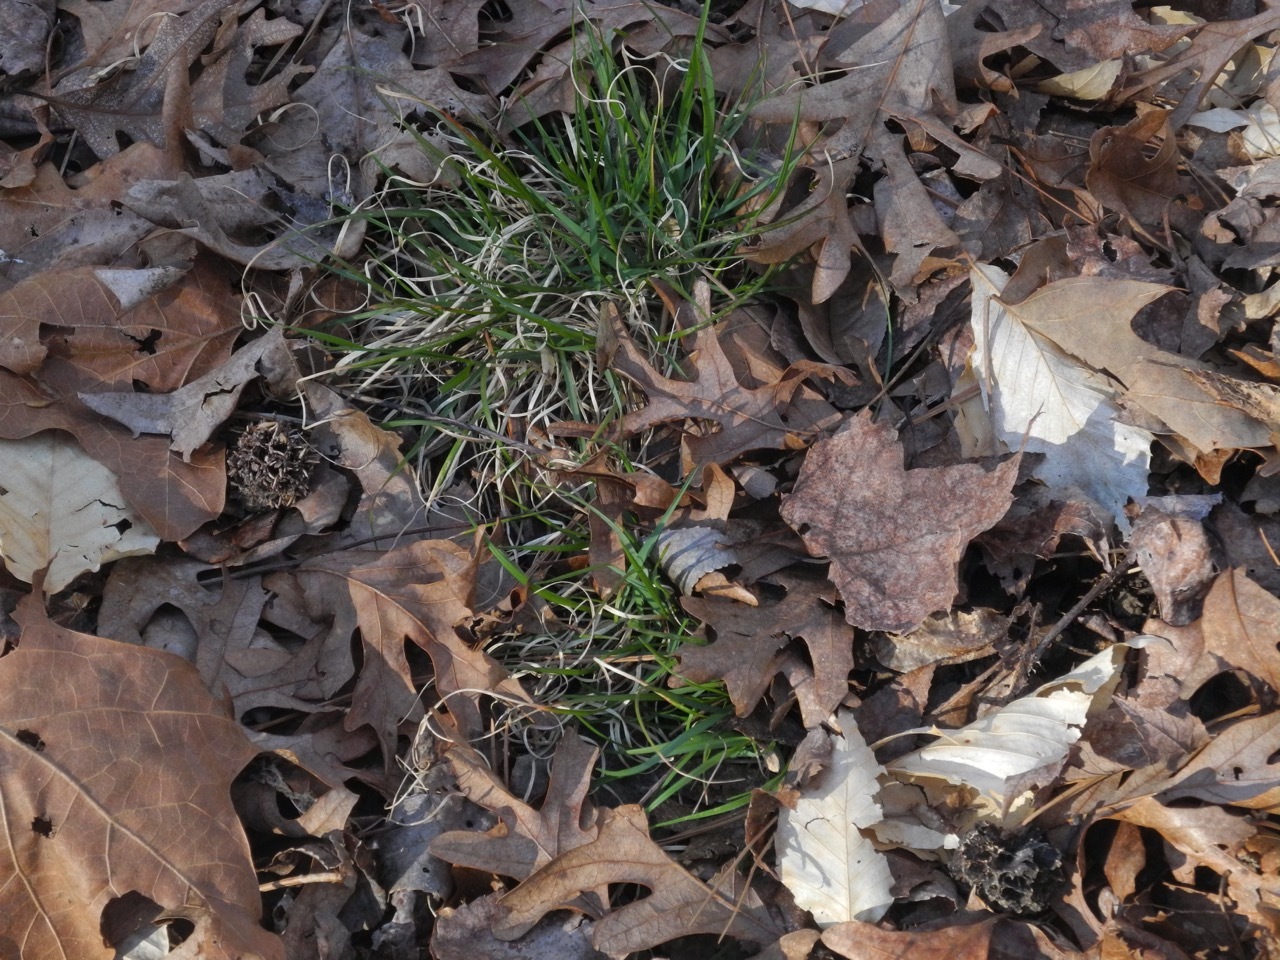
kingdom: Plantae
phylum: Tracheophyta
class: Liliopsida
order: Poales
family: Poaceae
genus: Danthonia
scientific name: Danthonia spicata
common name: Common wild oatgrass
